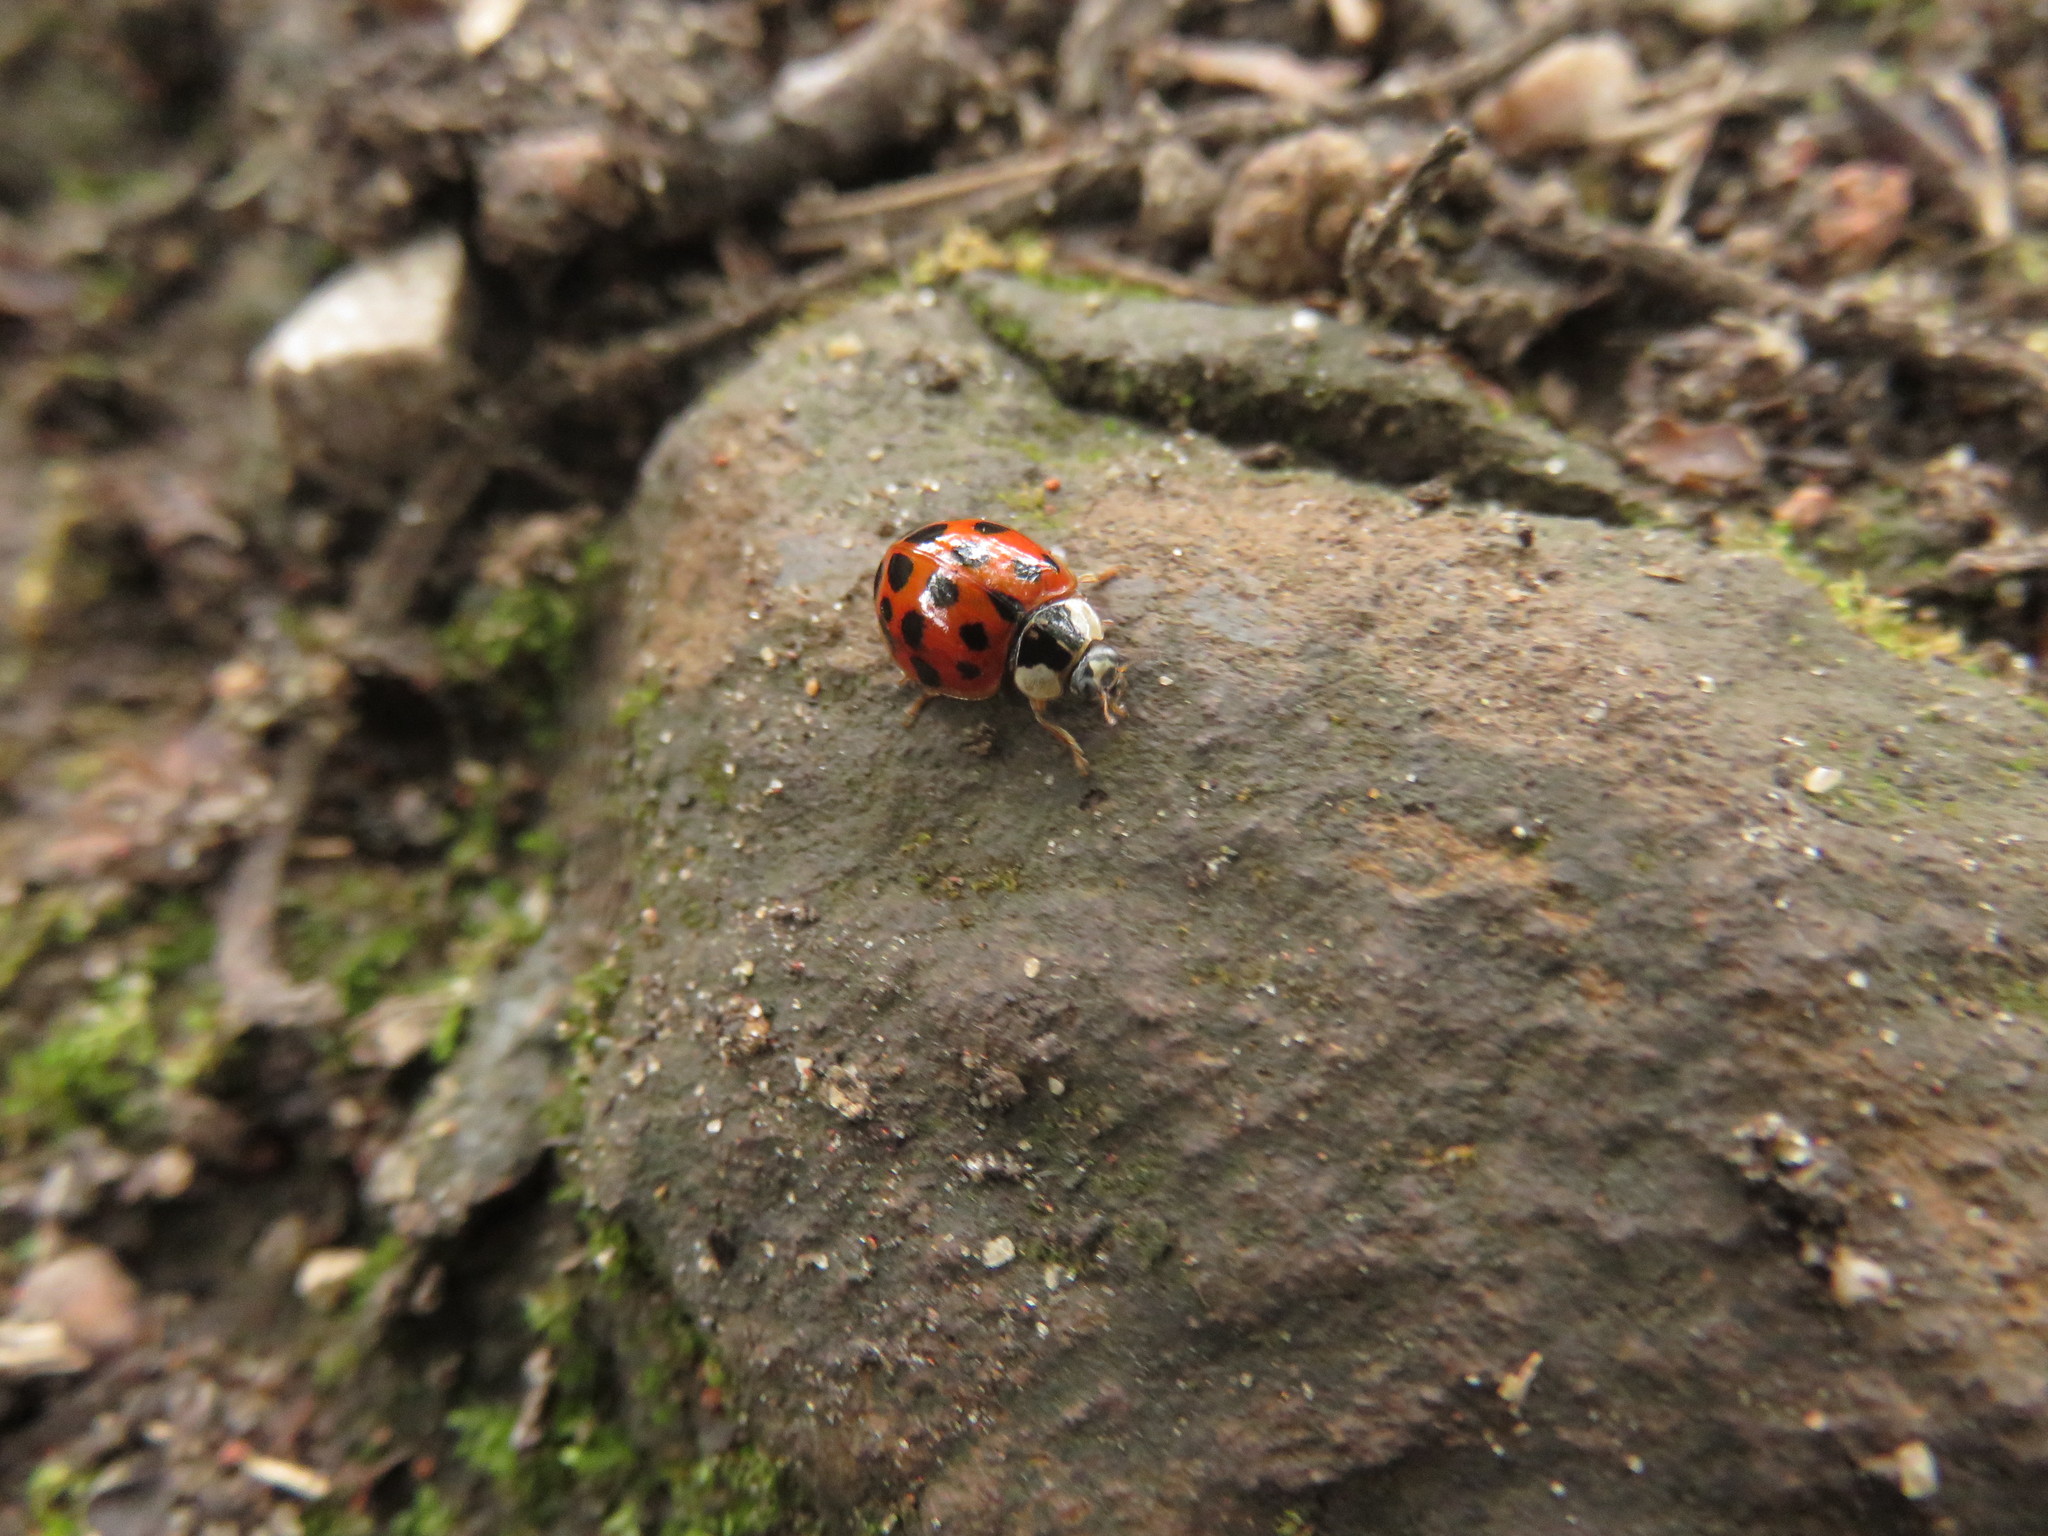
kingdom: Animalia
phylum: Arthropoda
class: Insecta
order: Coleoptera
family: Coccinellidae
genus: Harmonia
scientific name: Harmonia axyridis
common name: Harlequin ladybird
